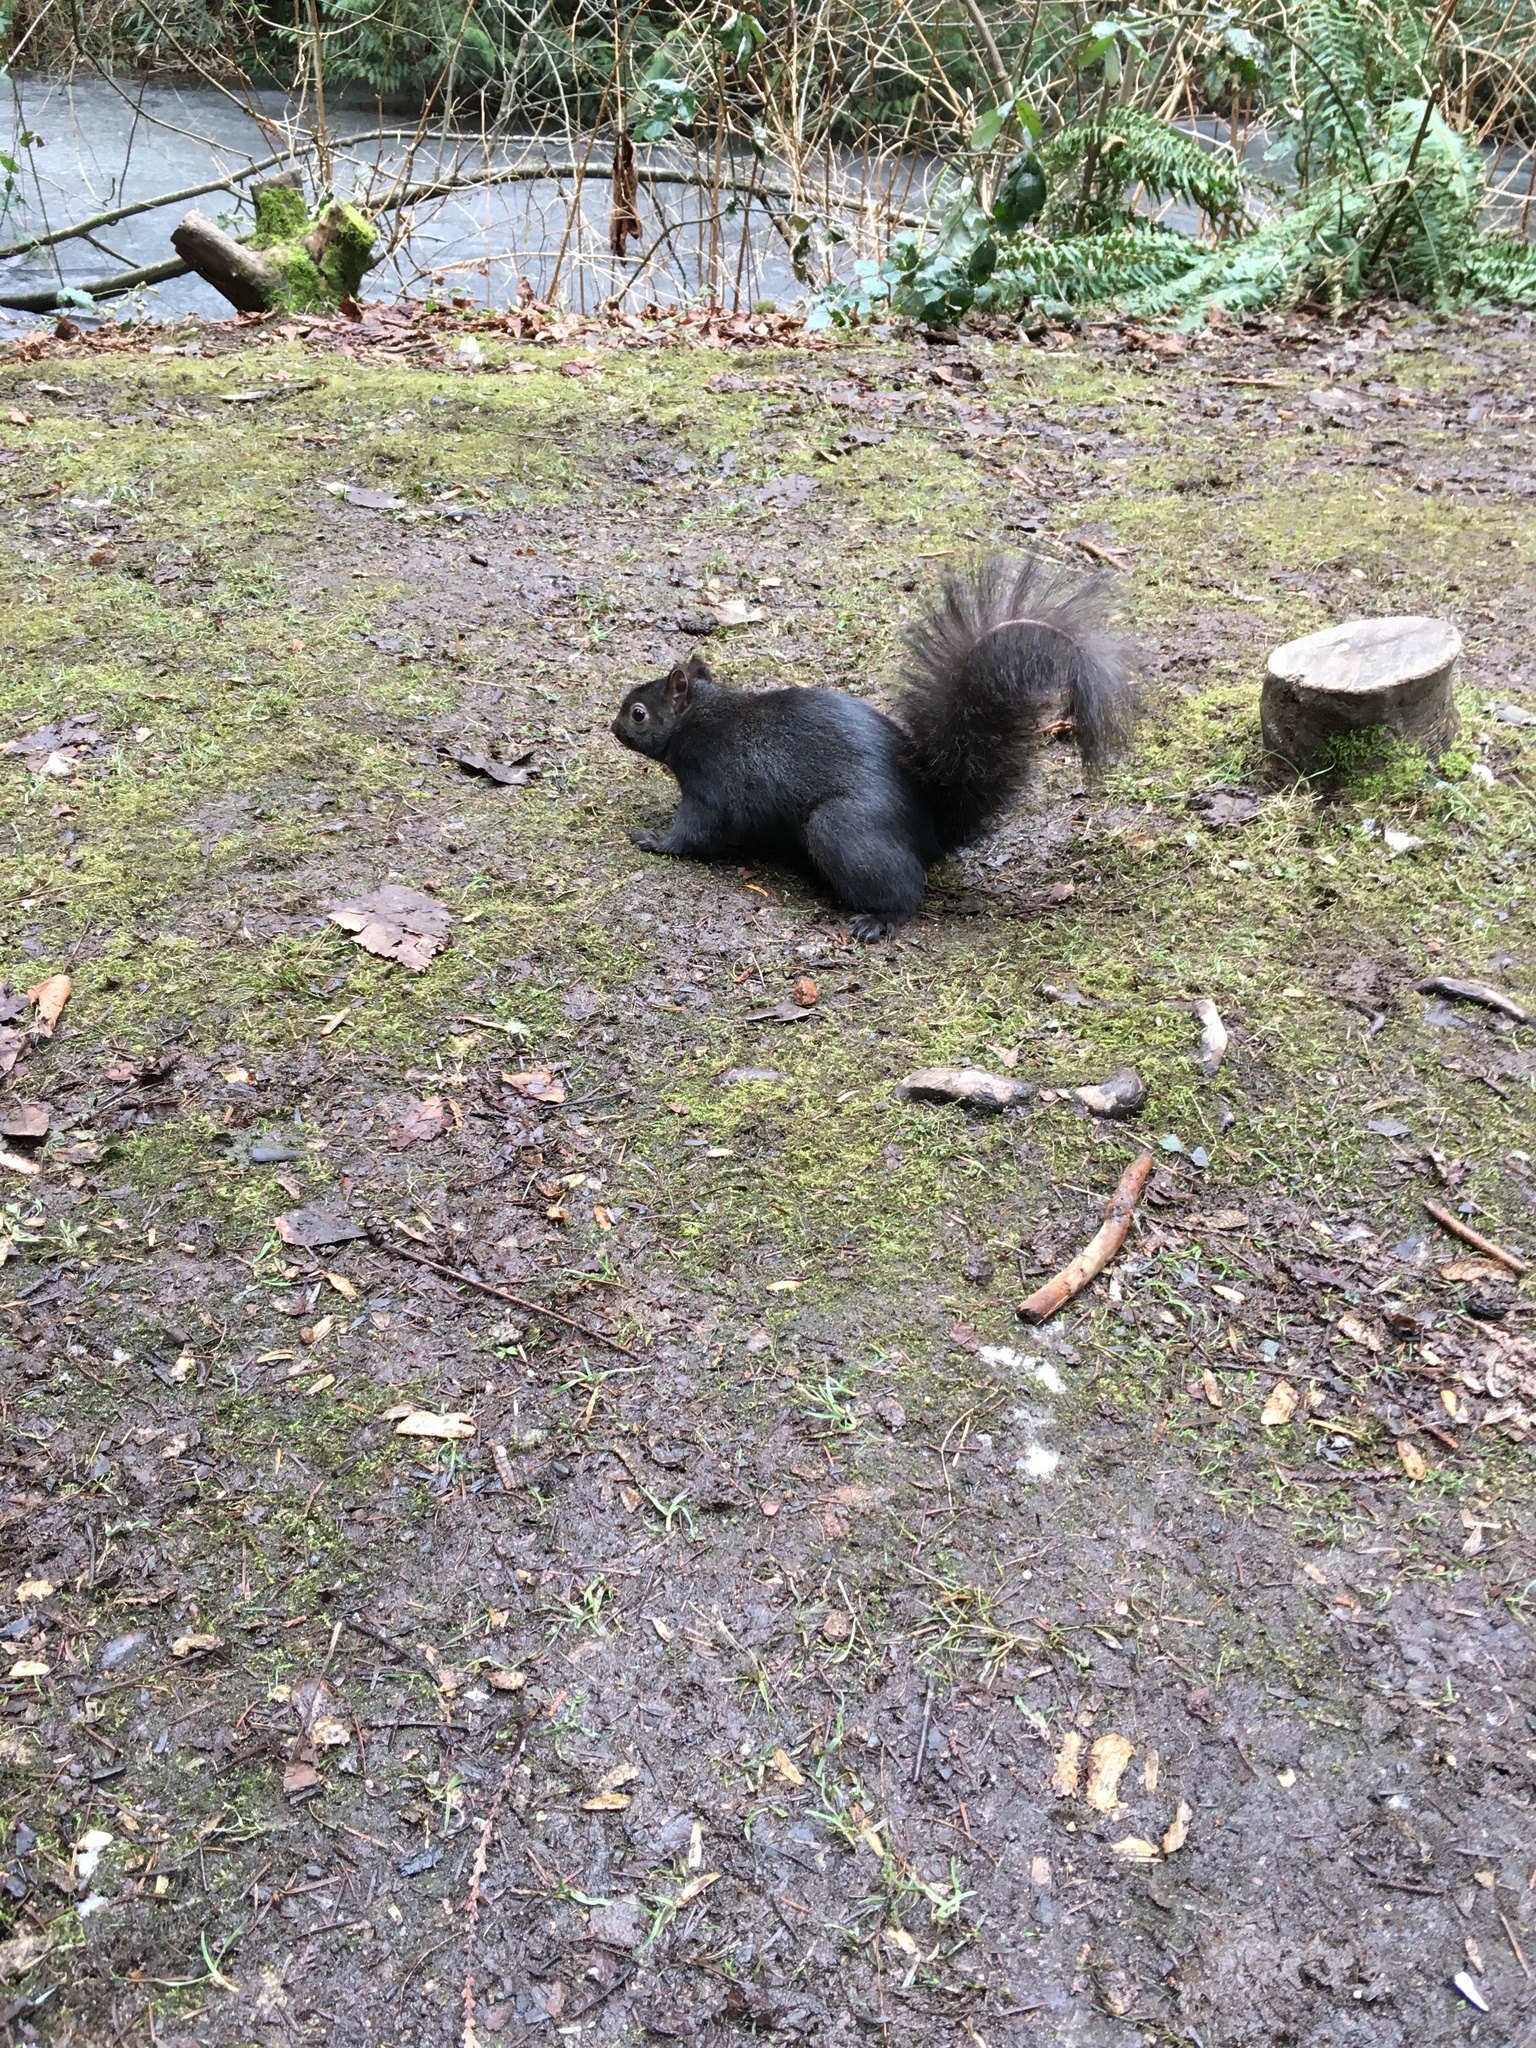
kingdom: Animalia
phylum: Chordata
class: Mammalia
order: Rodentia
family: Sciuridae
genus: Sciurus
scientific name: Sciurus carolinensis
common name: Eastern gray squirrel
